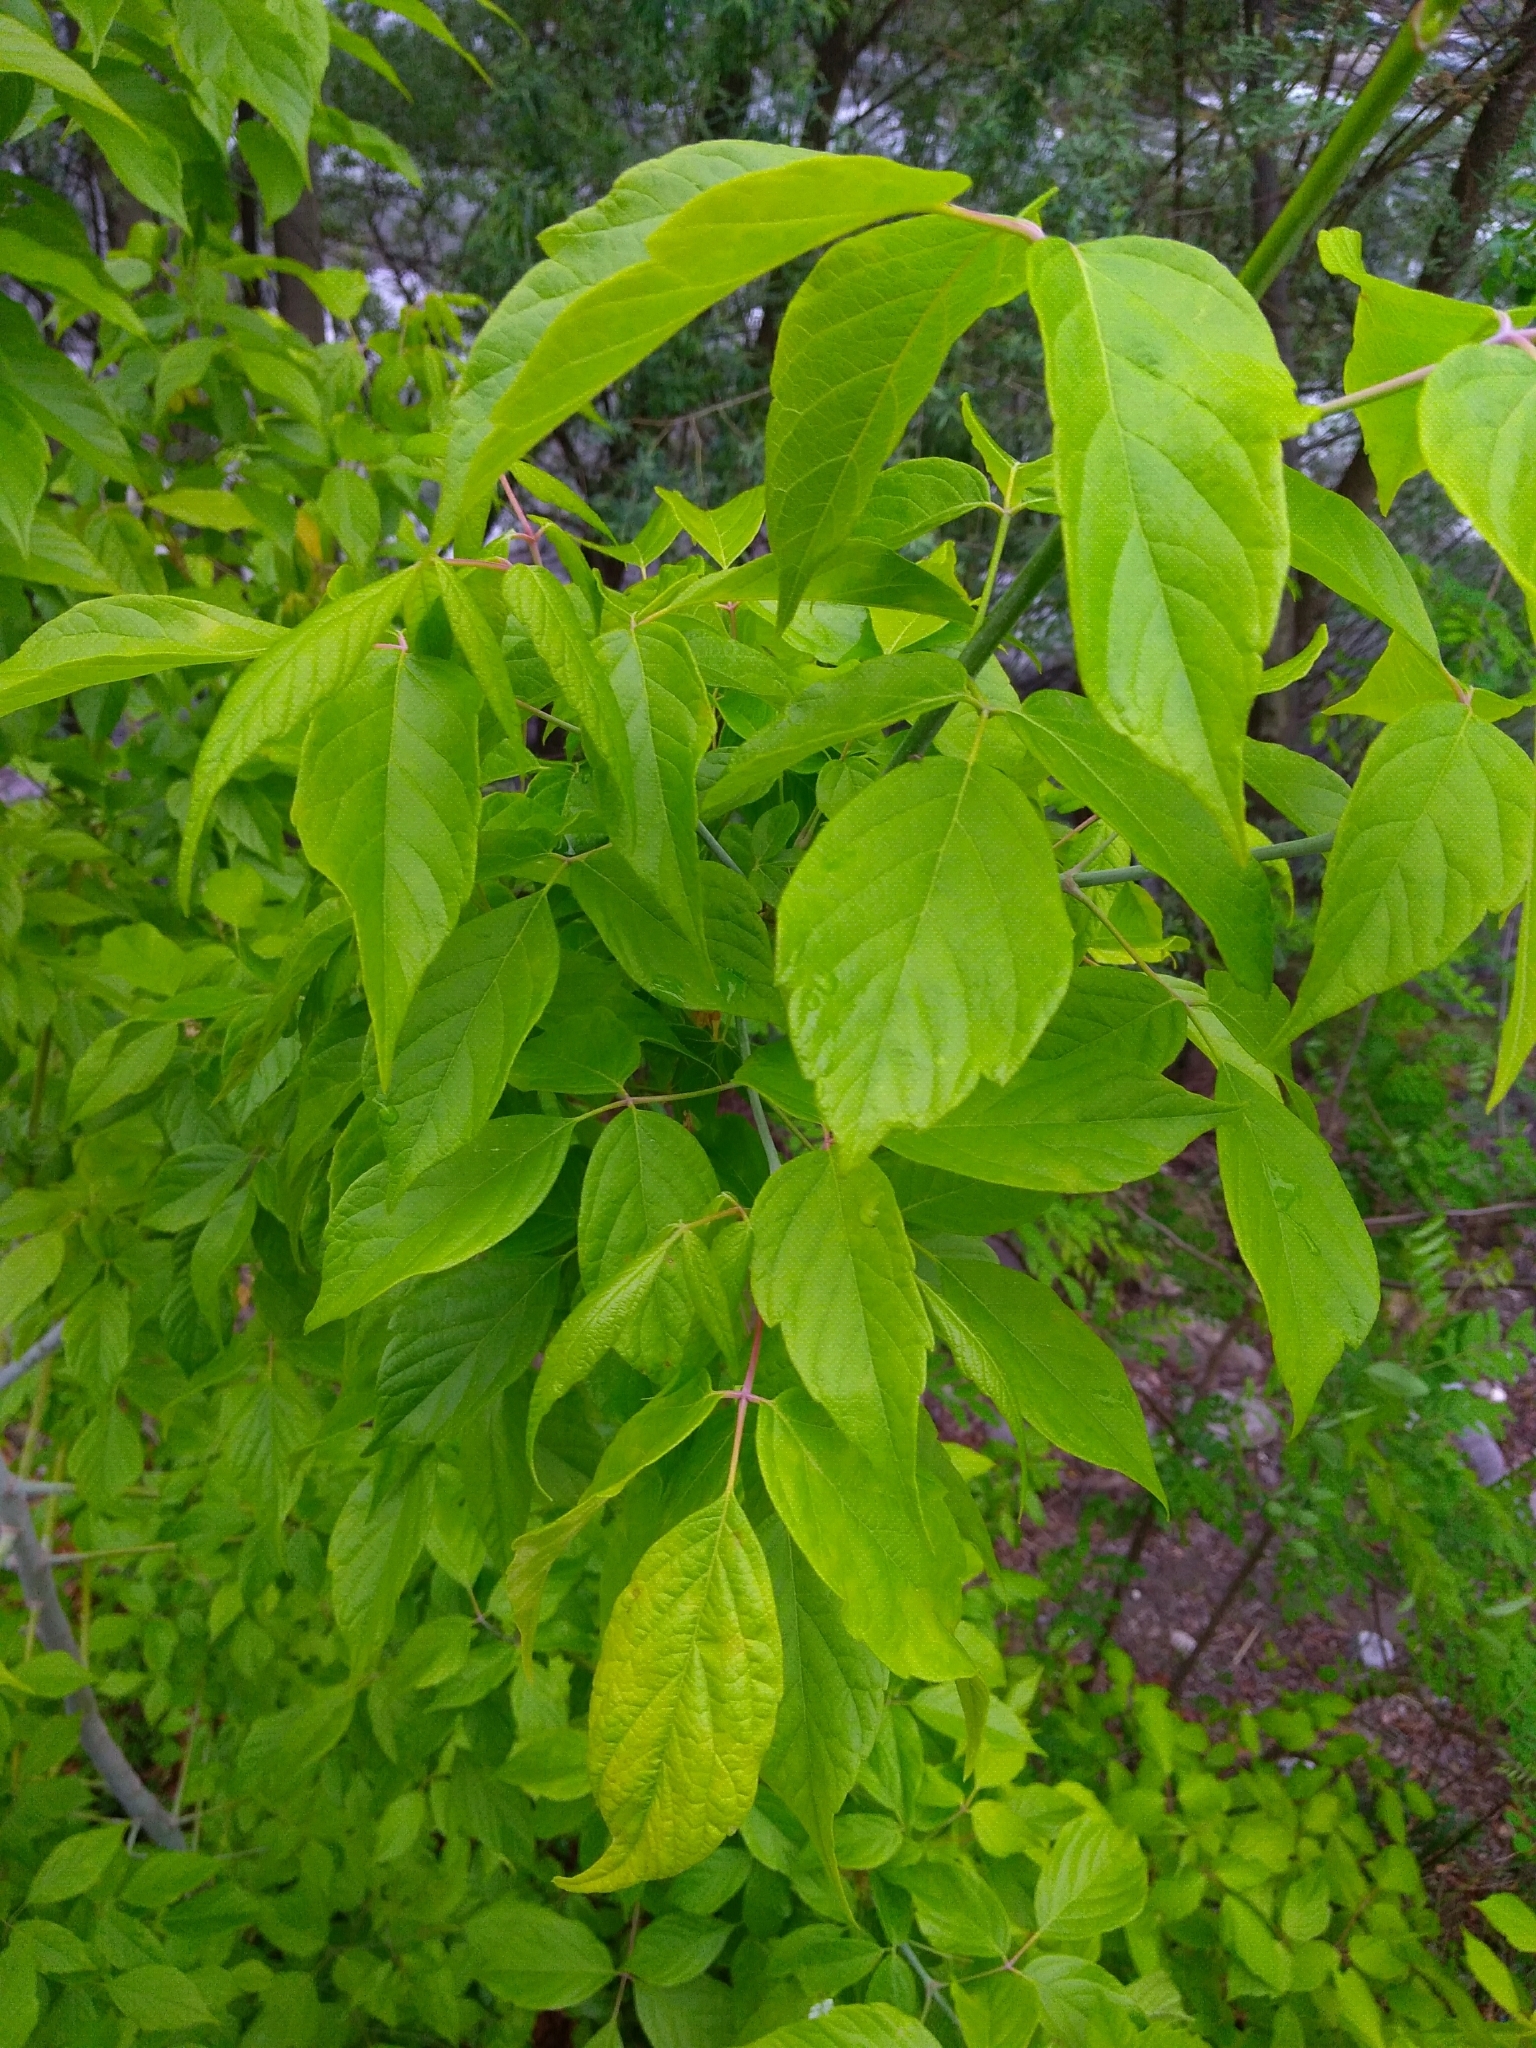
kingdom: Plantae
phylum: Tracheophyta
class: Magnoliopsida
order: Sapindales
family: Sapindaceae
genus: Acer
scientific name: Acer negundo
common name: Ashleaf maple
